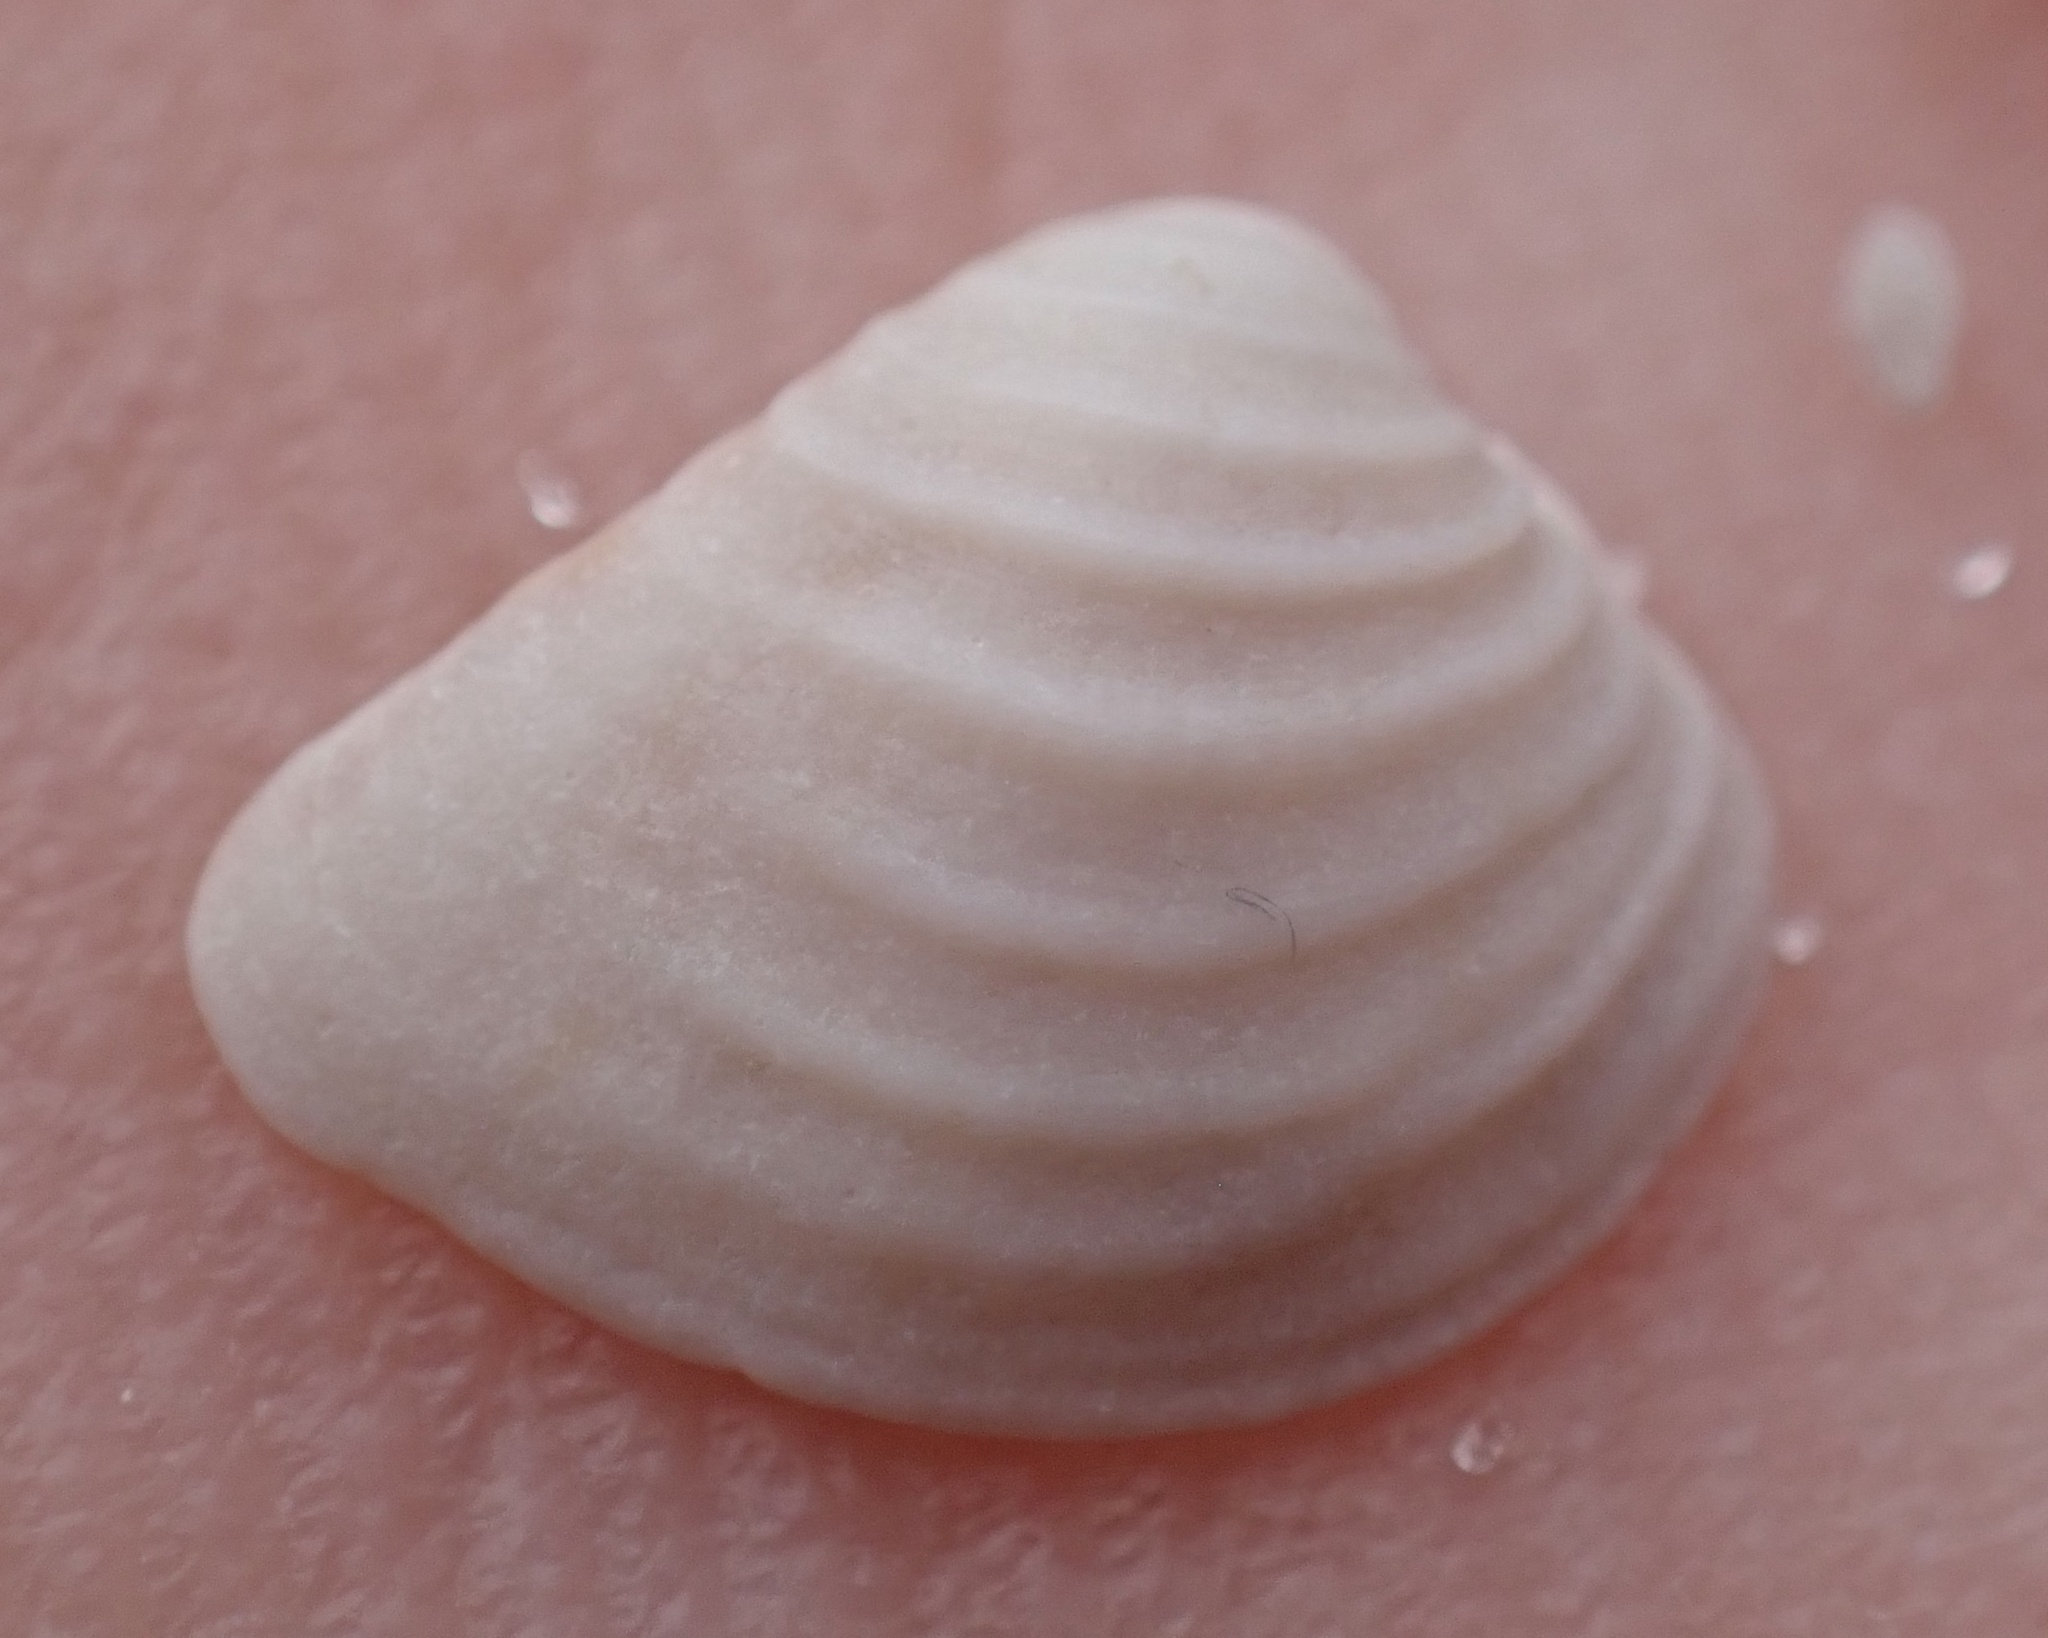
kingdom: Animalia
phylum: Mollusca
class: Bivalvia
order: Venerida
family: Veneridae
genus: Anomalocardia
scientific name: Anomalocardia cuneimeris
